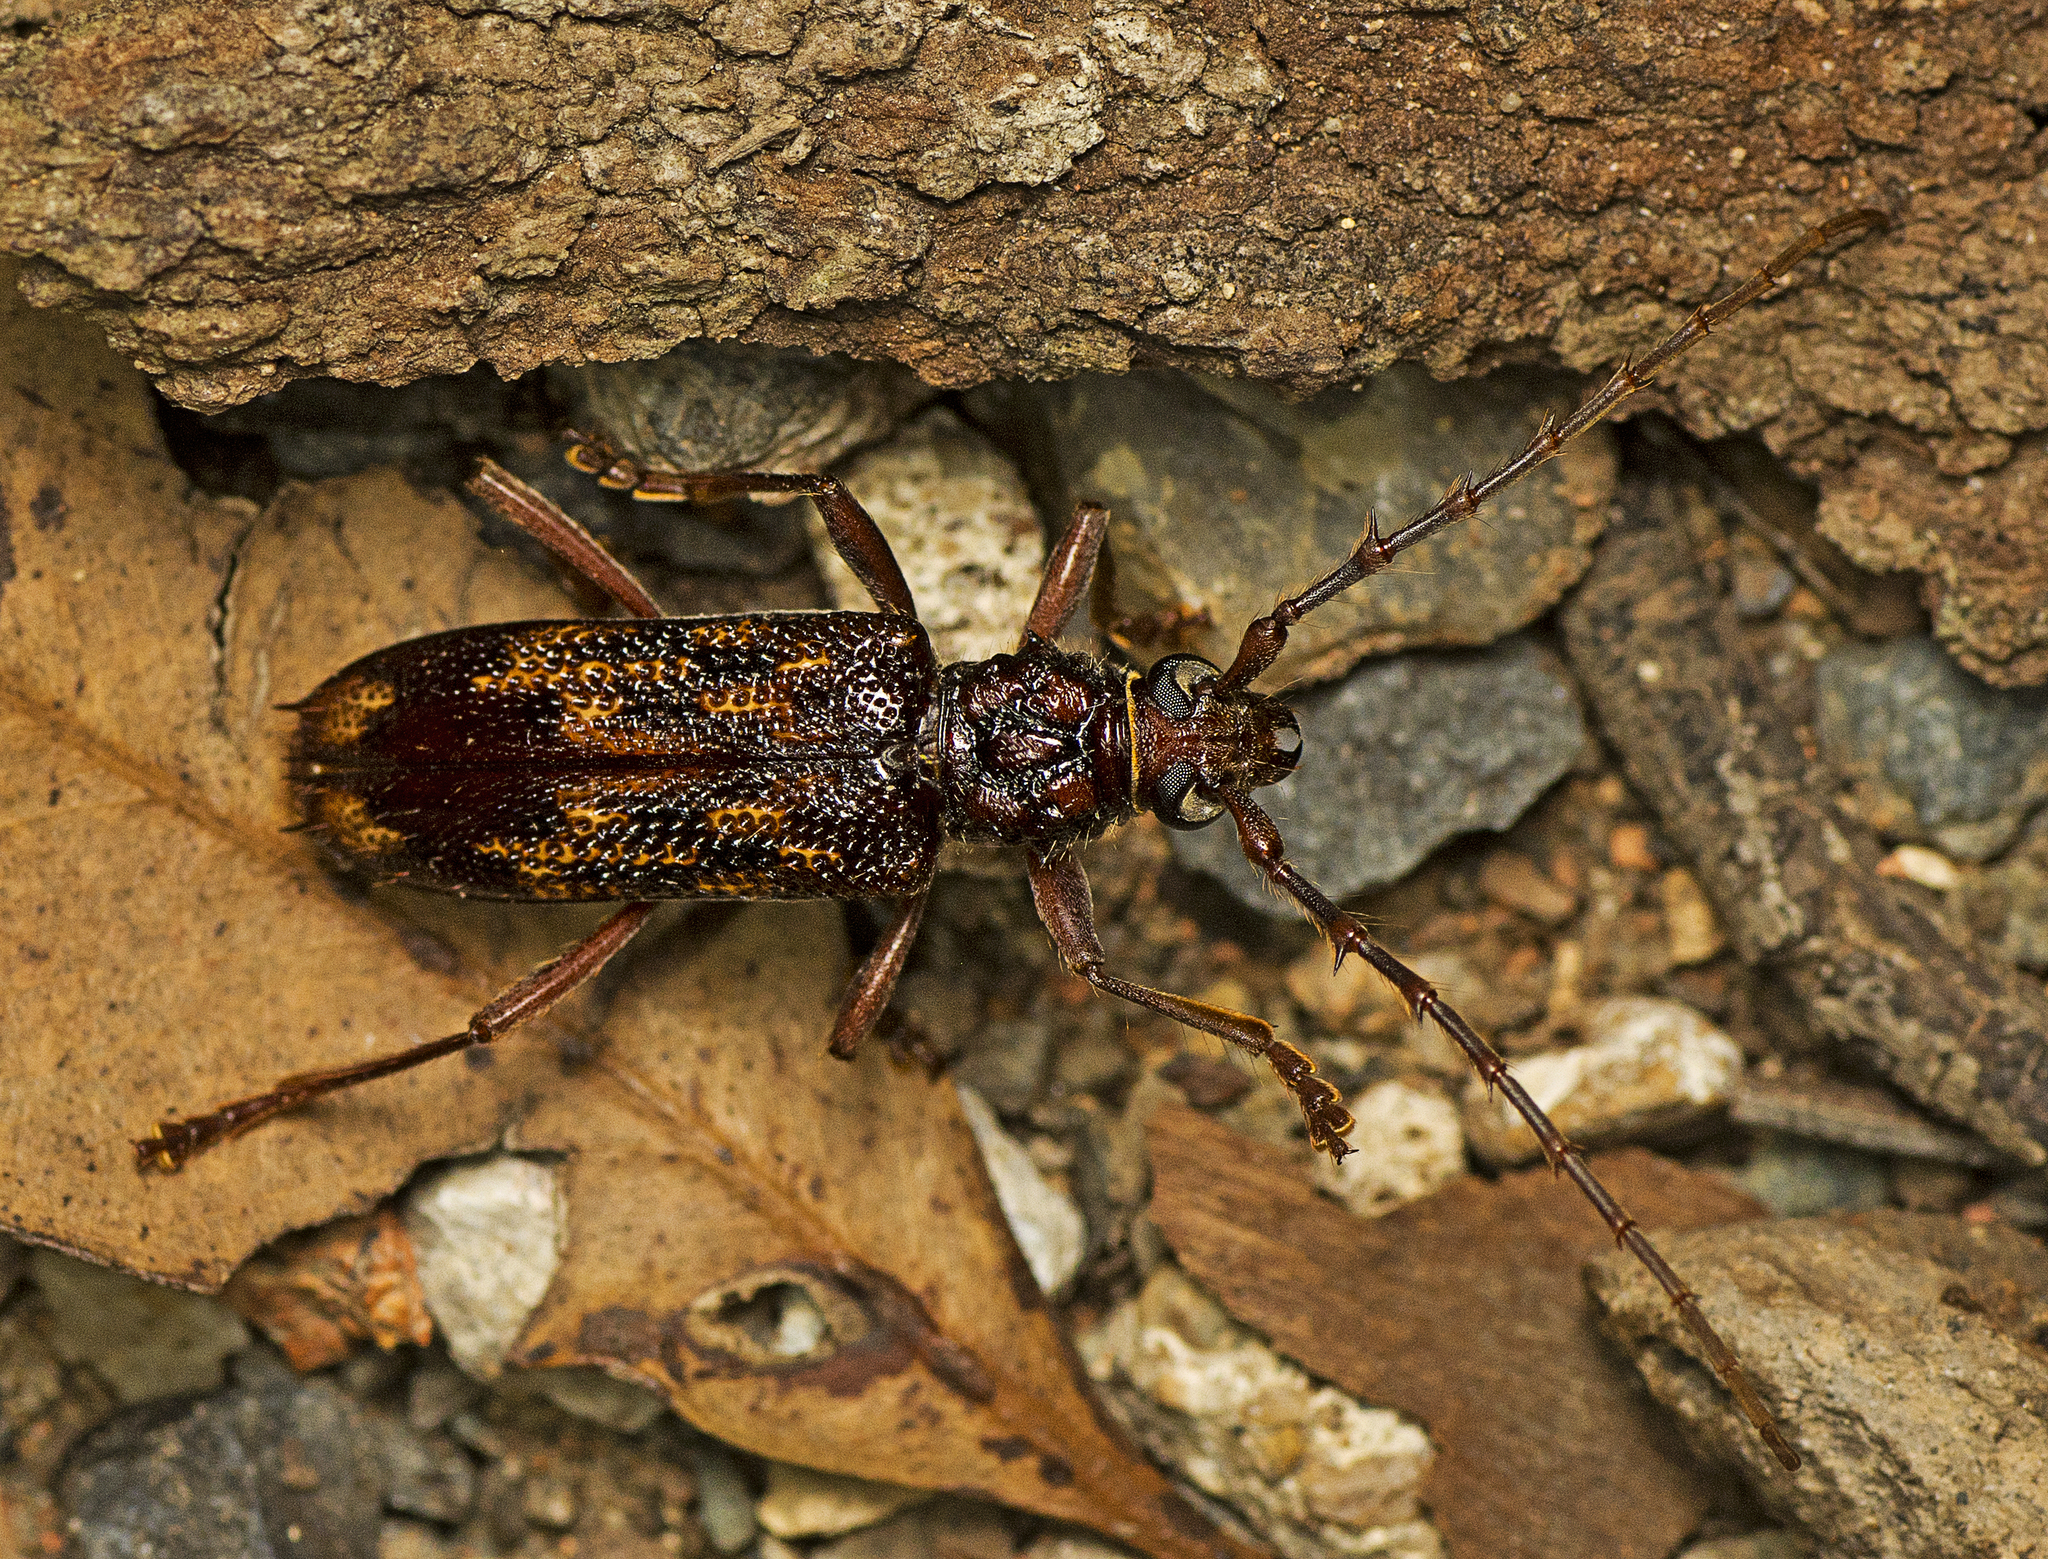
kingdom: Animalia
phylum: Arthropoda
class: Insecta
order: Coleoptera
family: Cerambycidae
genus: Phoracantha
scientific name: Phoracantha solida
